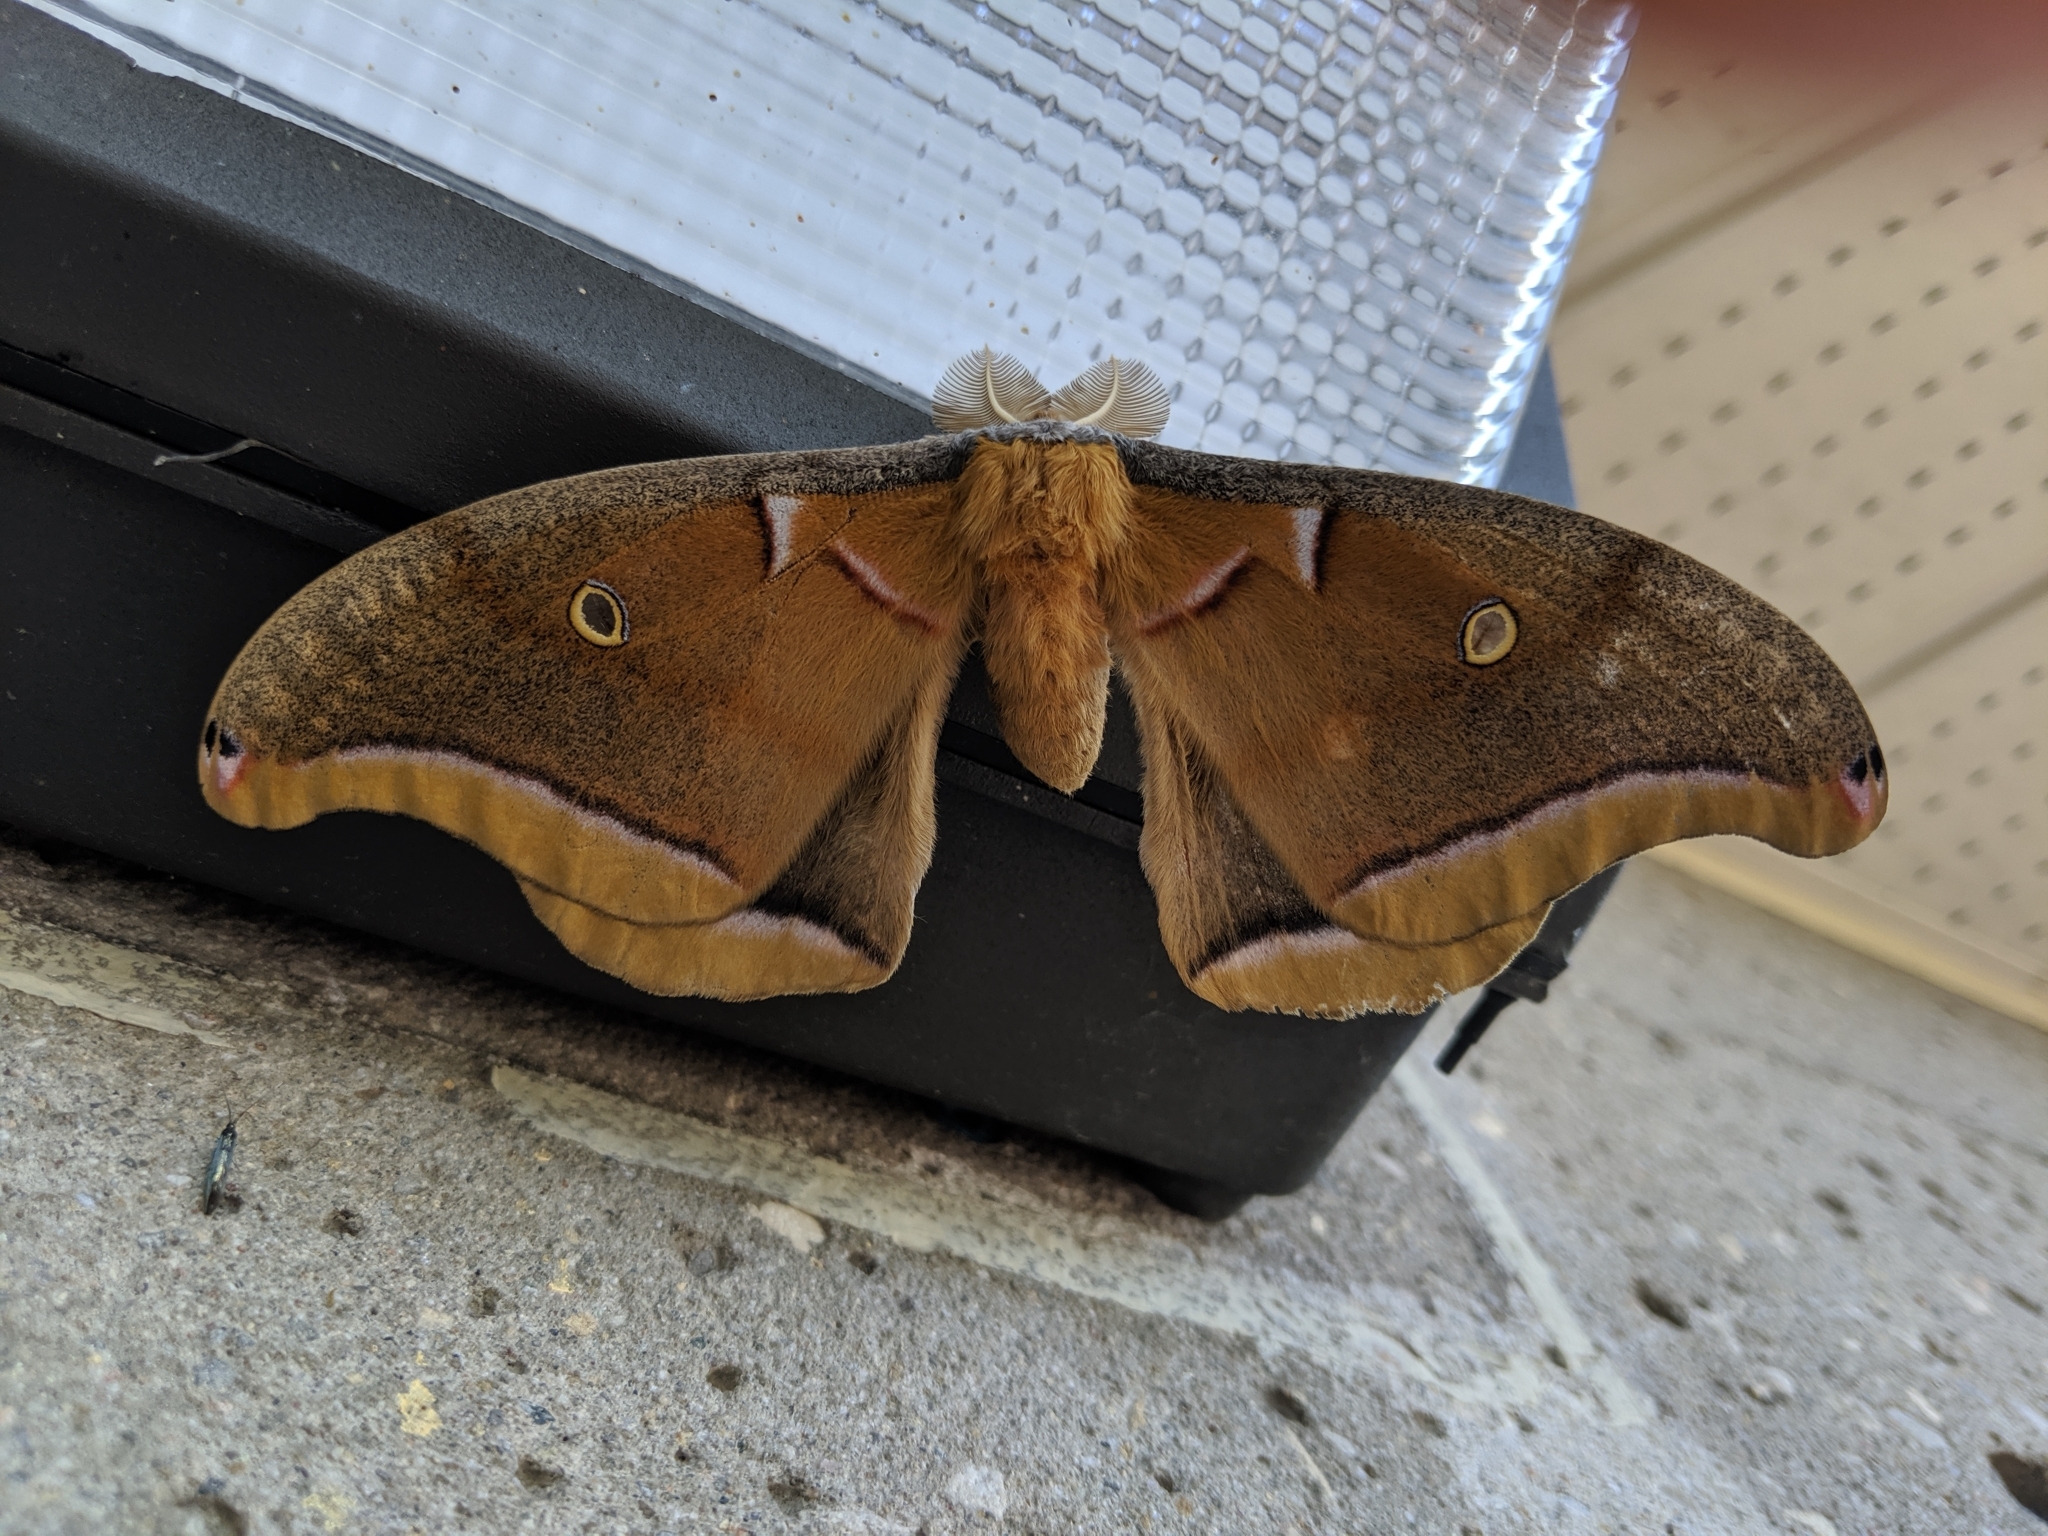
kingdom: Animalia
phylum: Arthropoda
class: Insecta
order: Lepidoptera
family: Saturniidae
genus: Antheraea
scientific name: Antheraea polyphemus
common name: Polyphemus moth
